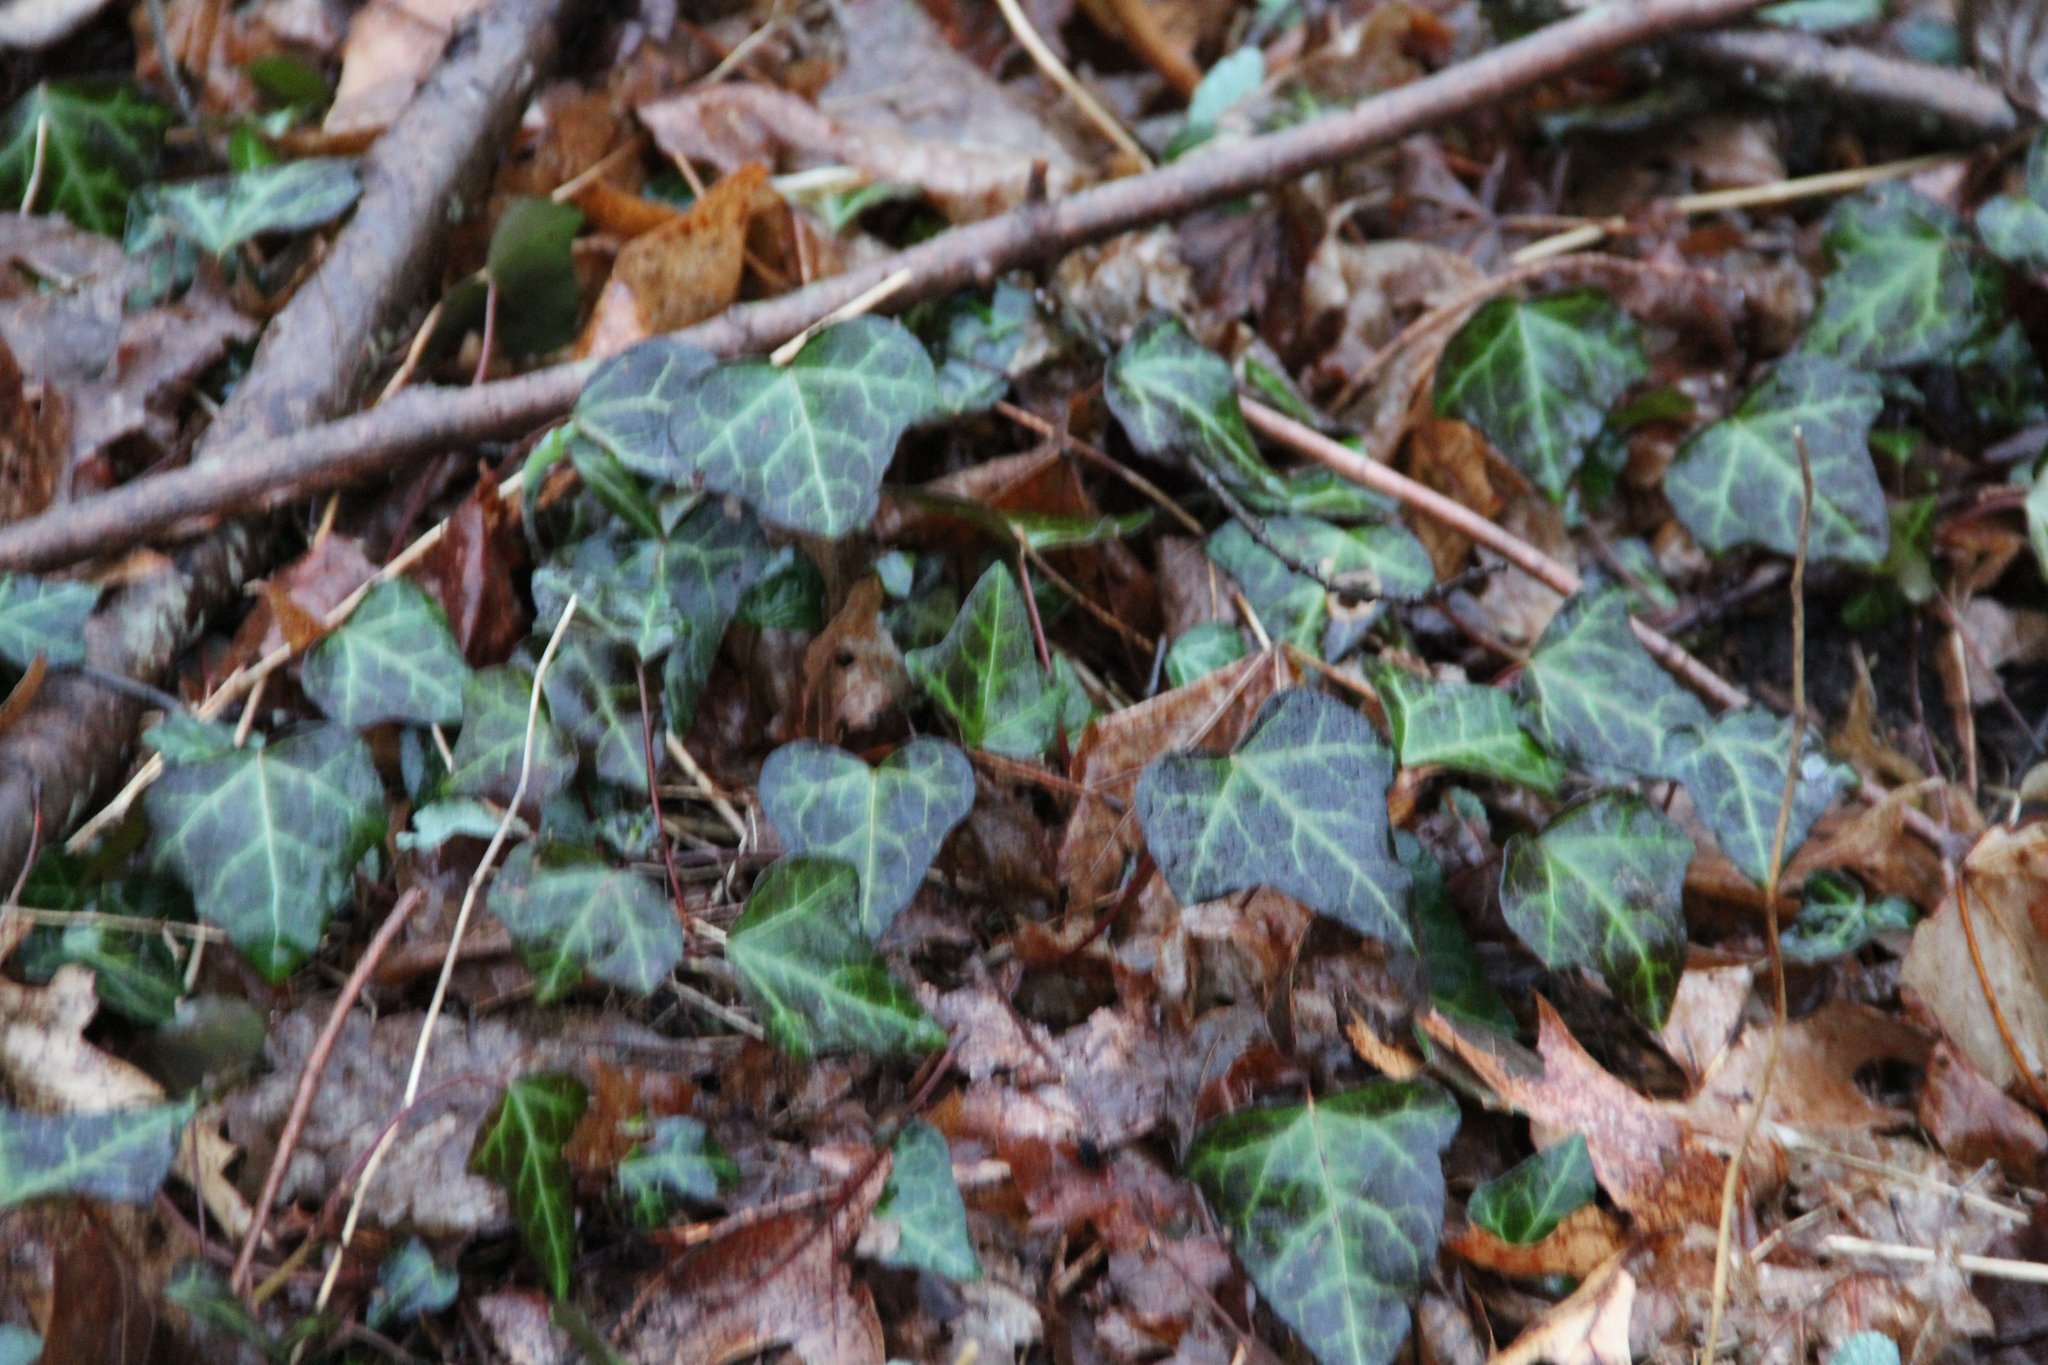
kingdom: Plantae
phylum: Tracheophyta
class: Magnoliopsida
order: Apiales
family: Araliaceae
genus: Hedera
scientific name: Hedera helix
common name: Ivy
